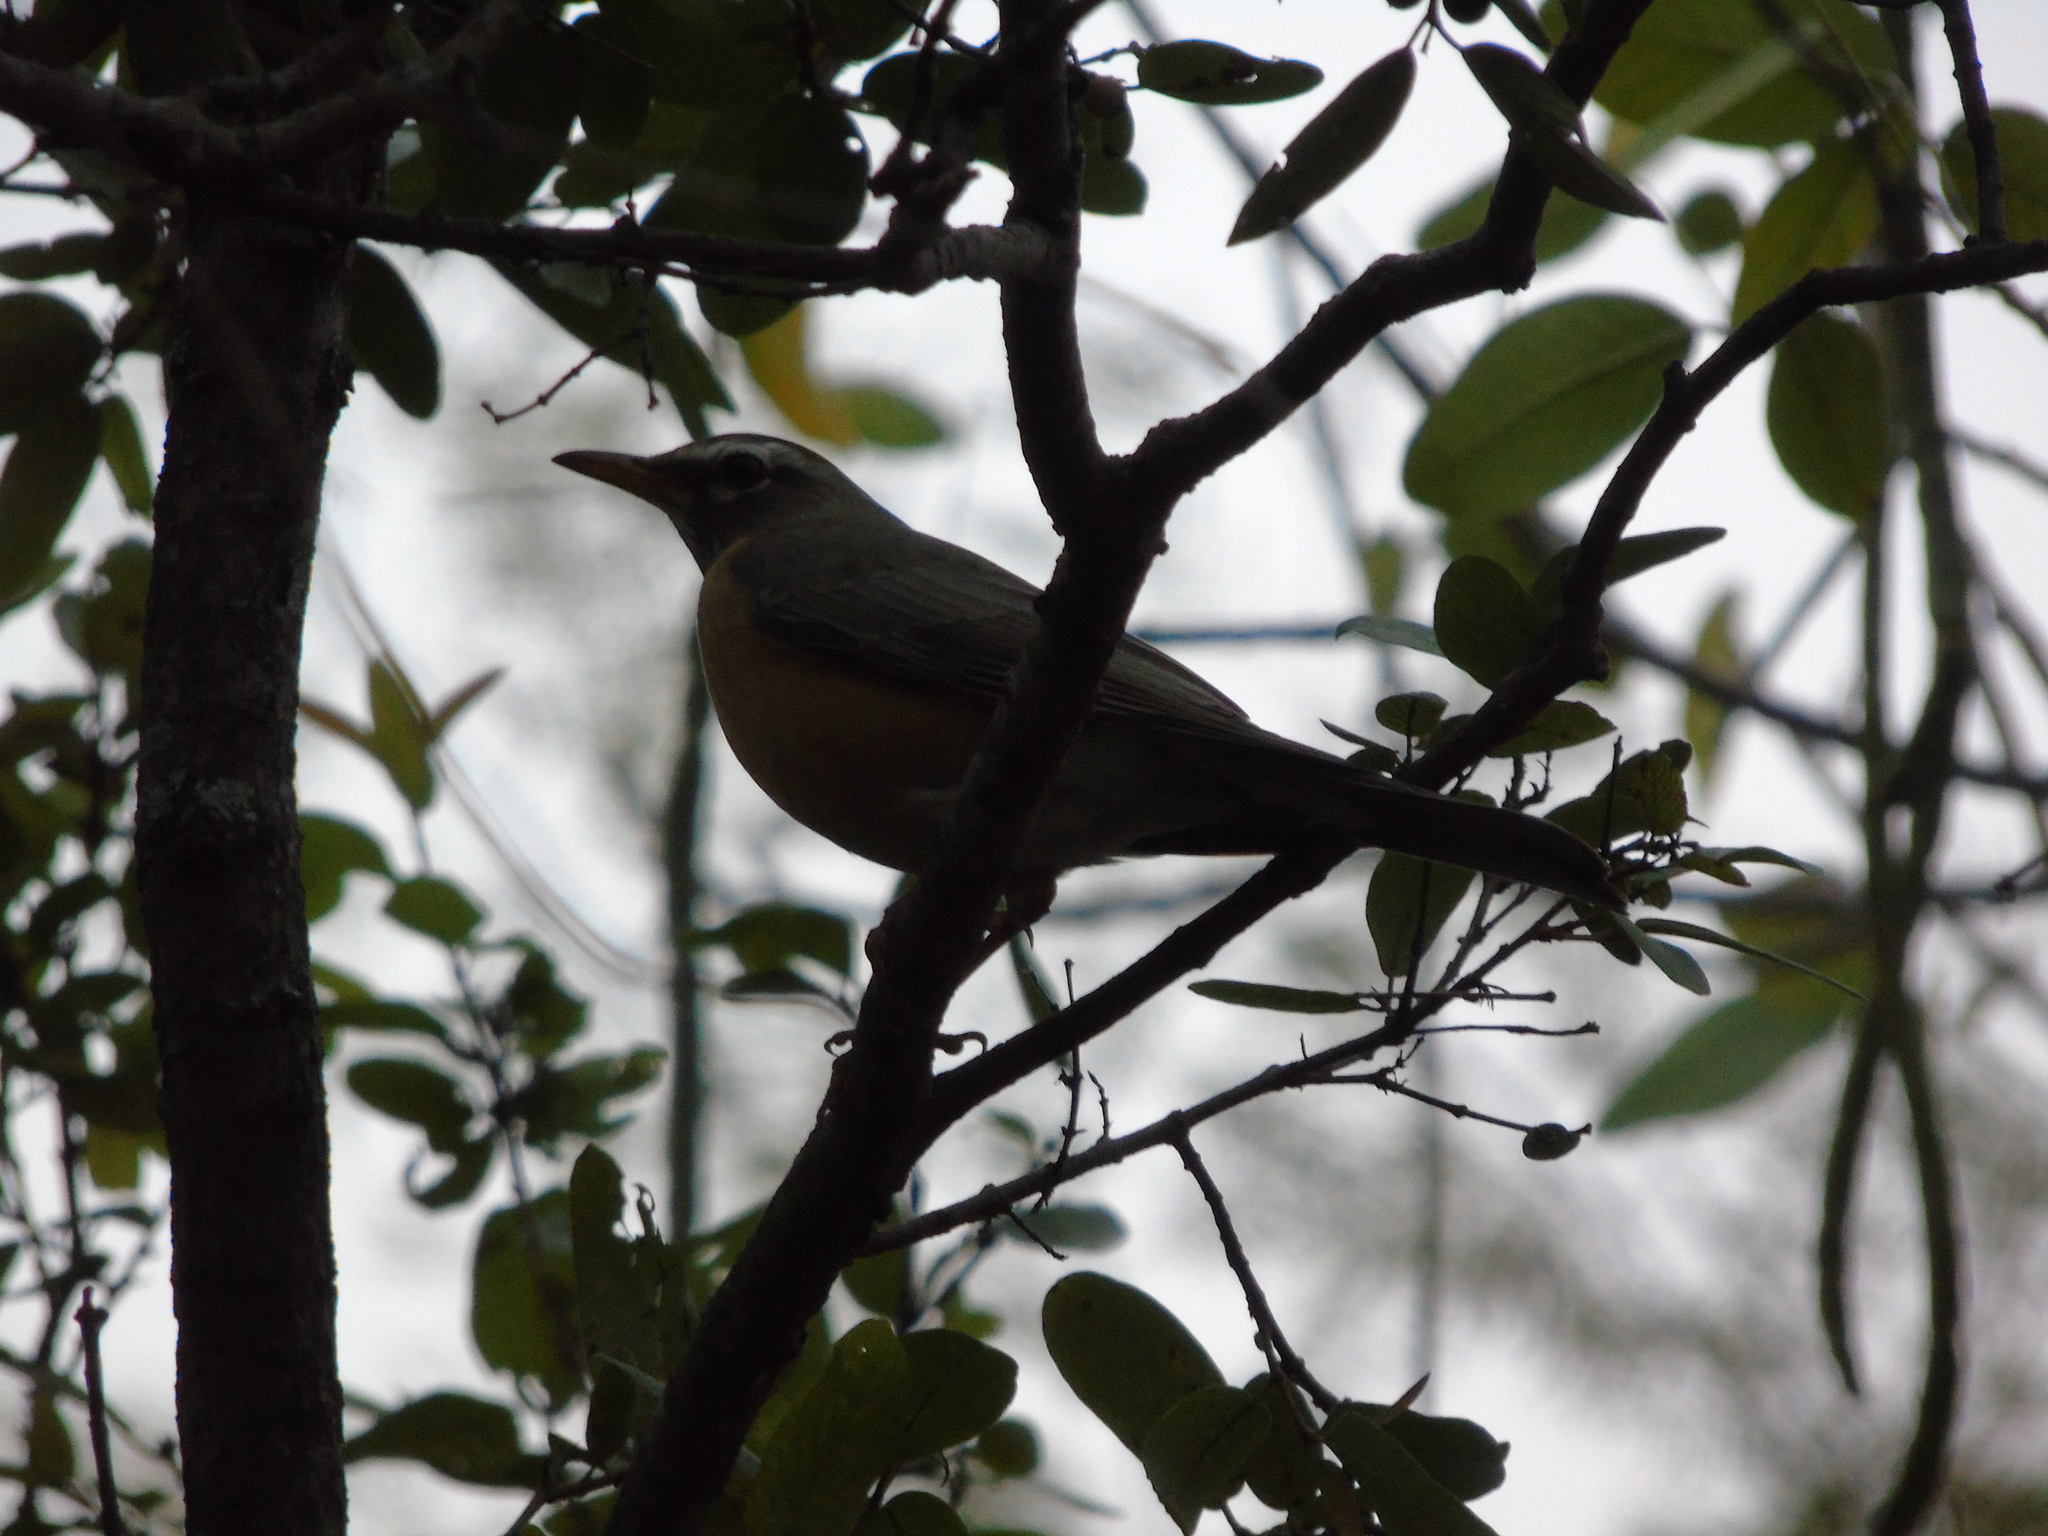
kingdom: Animalia
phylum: Chordata
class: Aves
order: Passeriformes
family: Turdidae
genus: Turdus
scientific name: Turdus migratorius
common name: American robin
